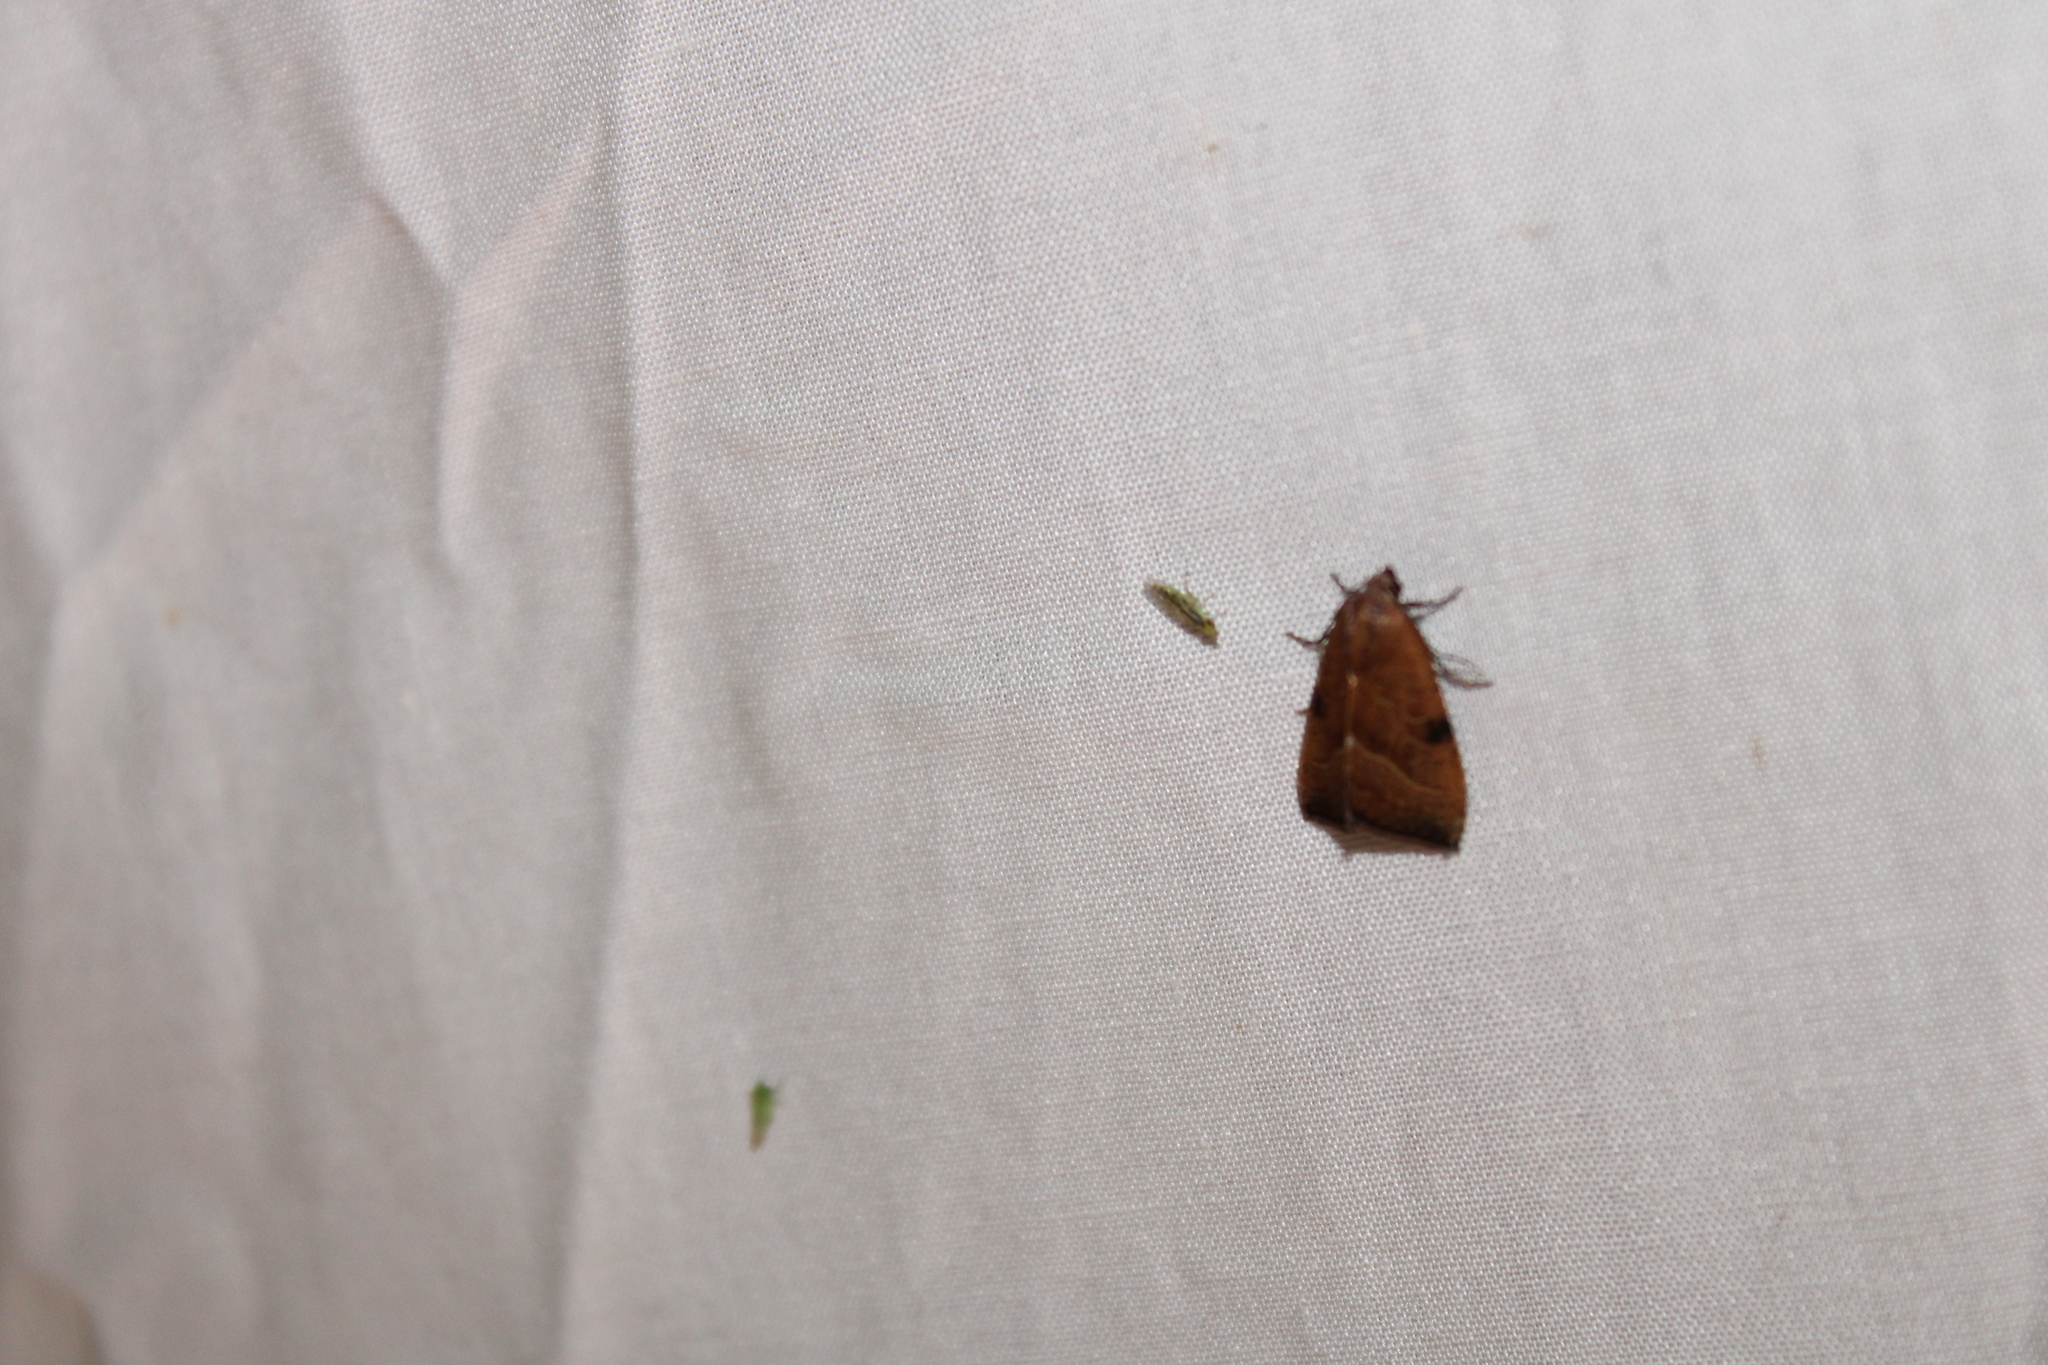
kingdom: Animalia
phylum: Arthropoda
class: Insecta
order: Lepidoptera
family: Noctuidae
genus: Galgula
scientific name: Galgula partita
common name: Wedgeling
